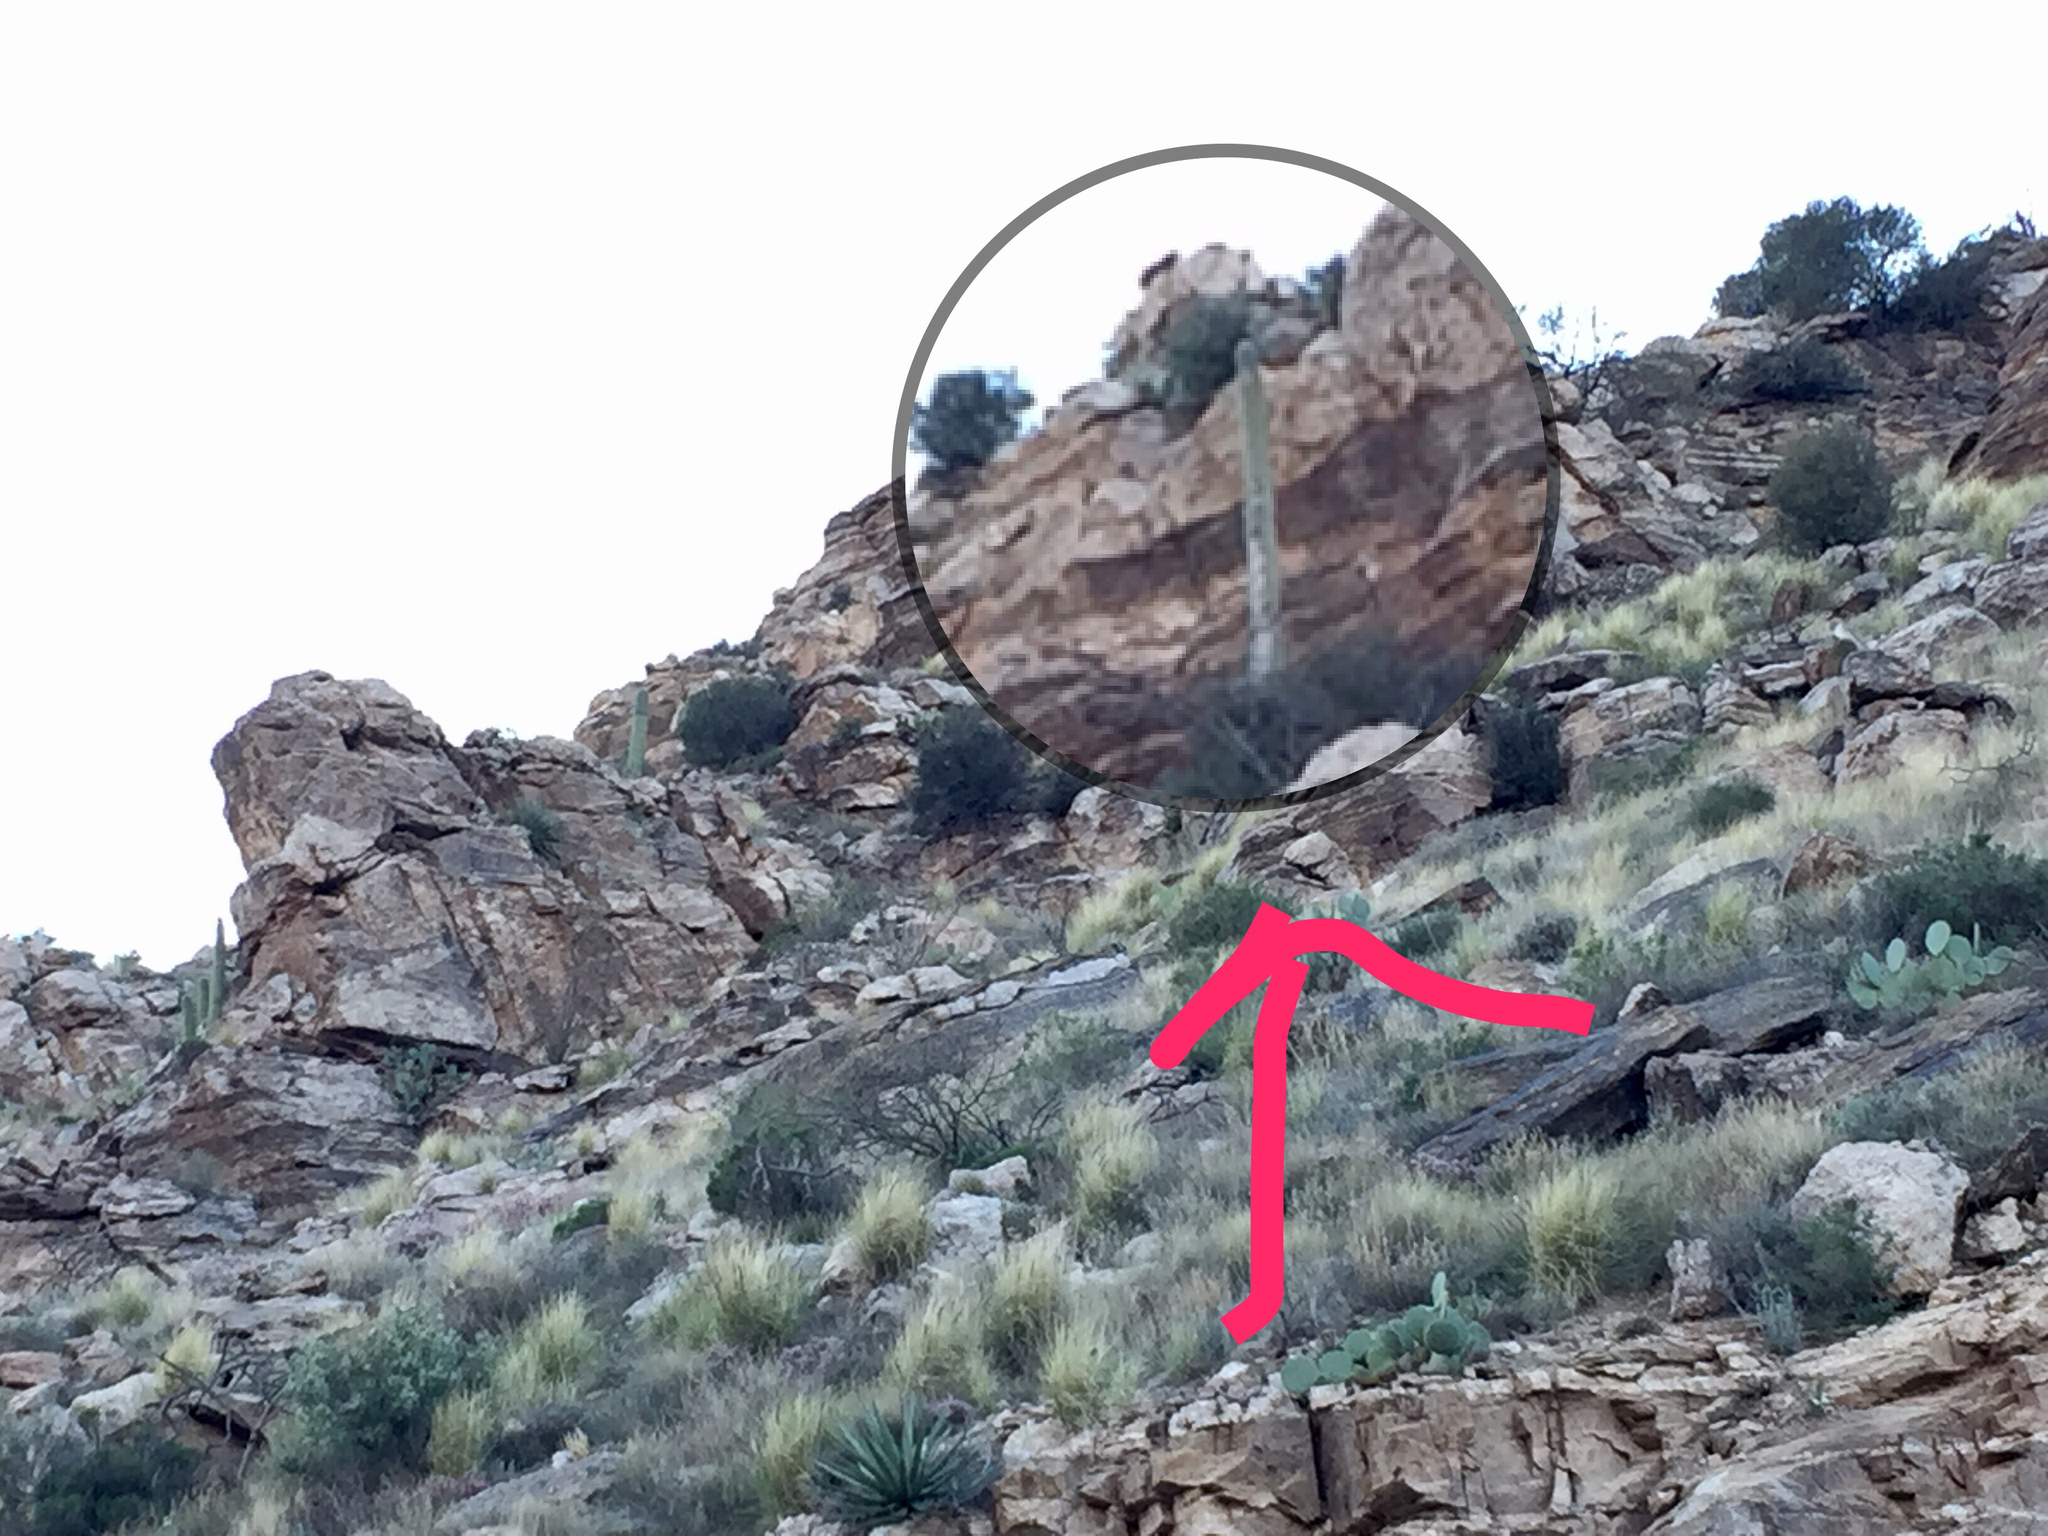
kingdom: Plantae
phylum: Tracheophyta
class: Magnoliopsida
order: Caryophyllales
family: Cactaceae
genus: Carnegiea
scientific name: Carnegiea gigantea
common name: Saguaro
